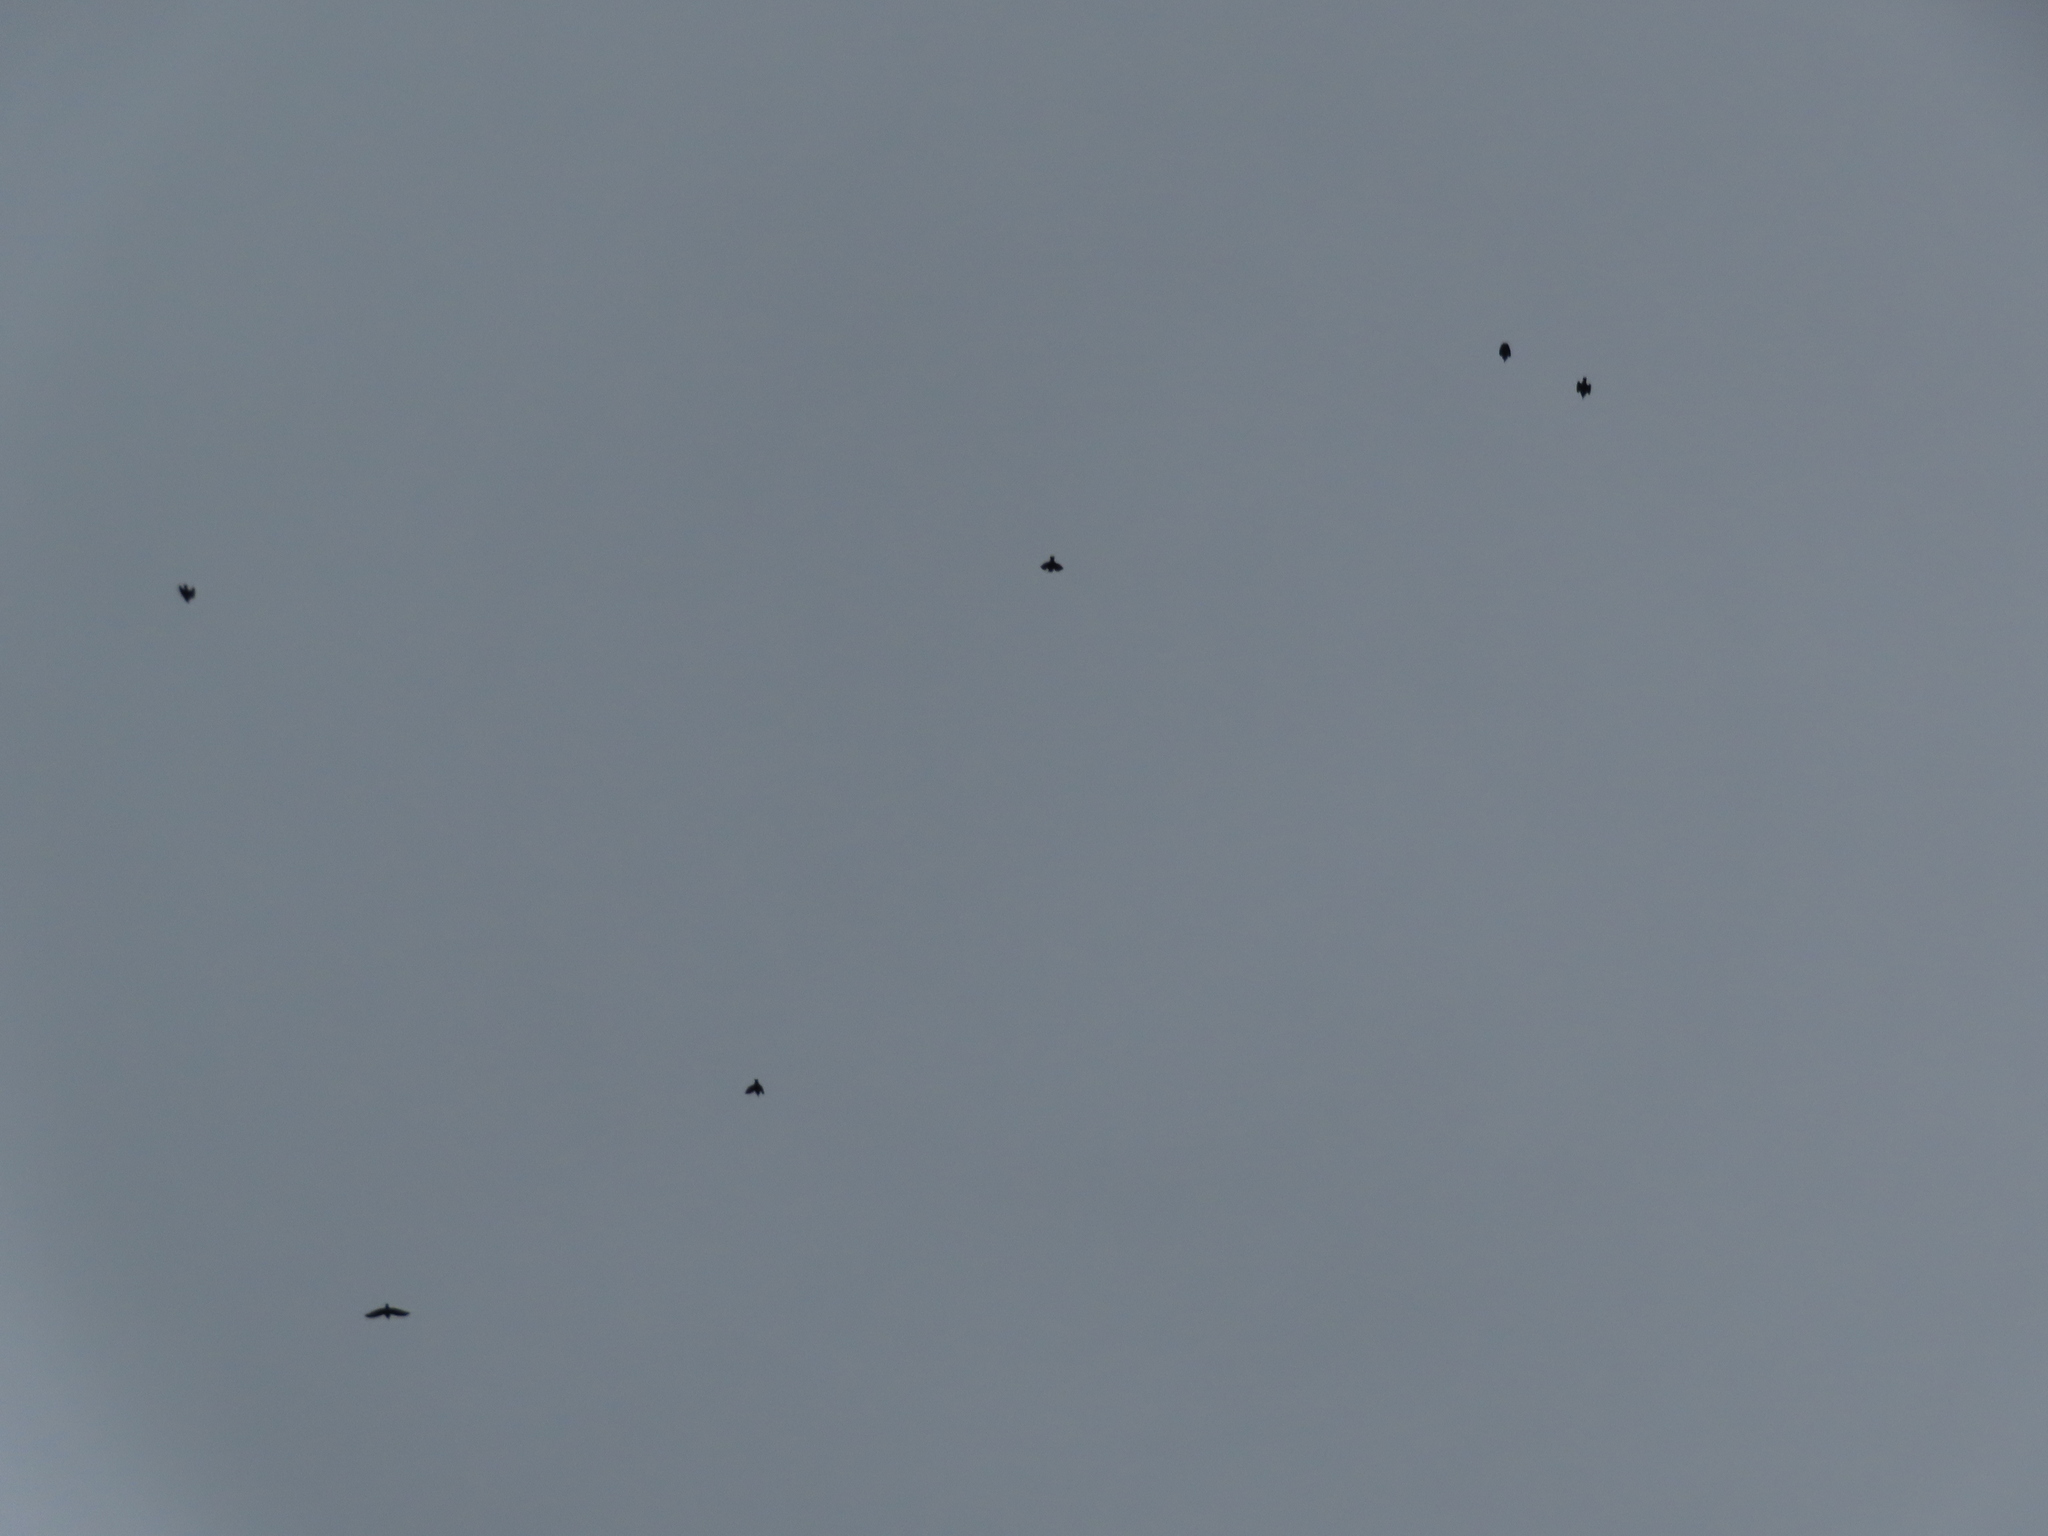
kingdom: Animalia
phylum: Chordata
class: Aves
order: Passeriformes
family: Sturnidae
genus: Sturnus
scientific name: Sturnus vulgaris
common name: Common starling
